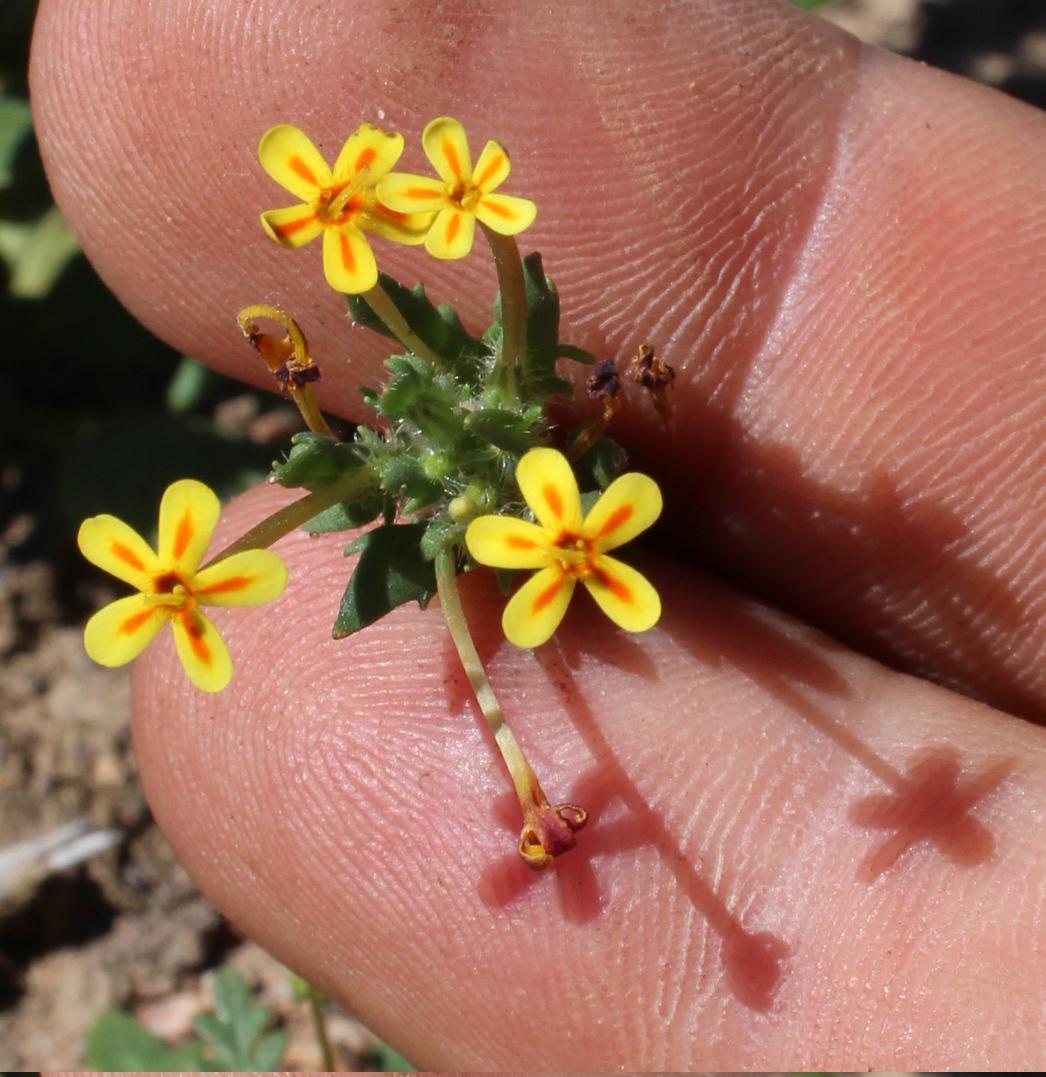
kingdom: Plantae
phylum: Tracheophyta
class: Magnoliopsida
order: Lamiales
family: Scrophulariaceae
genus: Zaluzianskya
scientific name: Zaluzianskya divaricata
